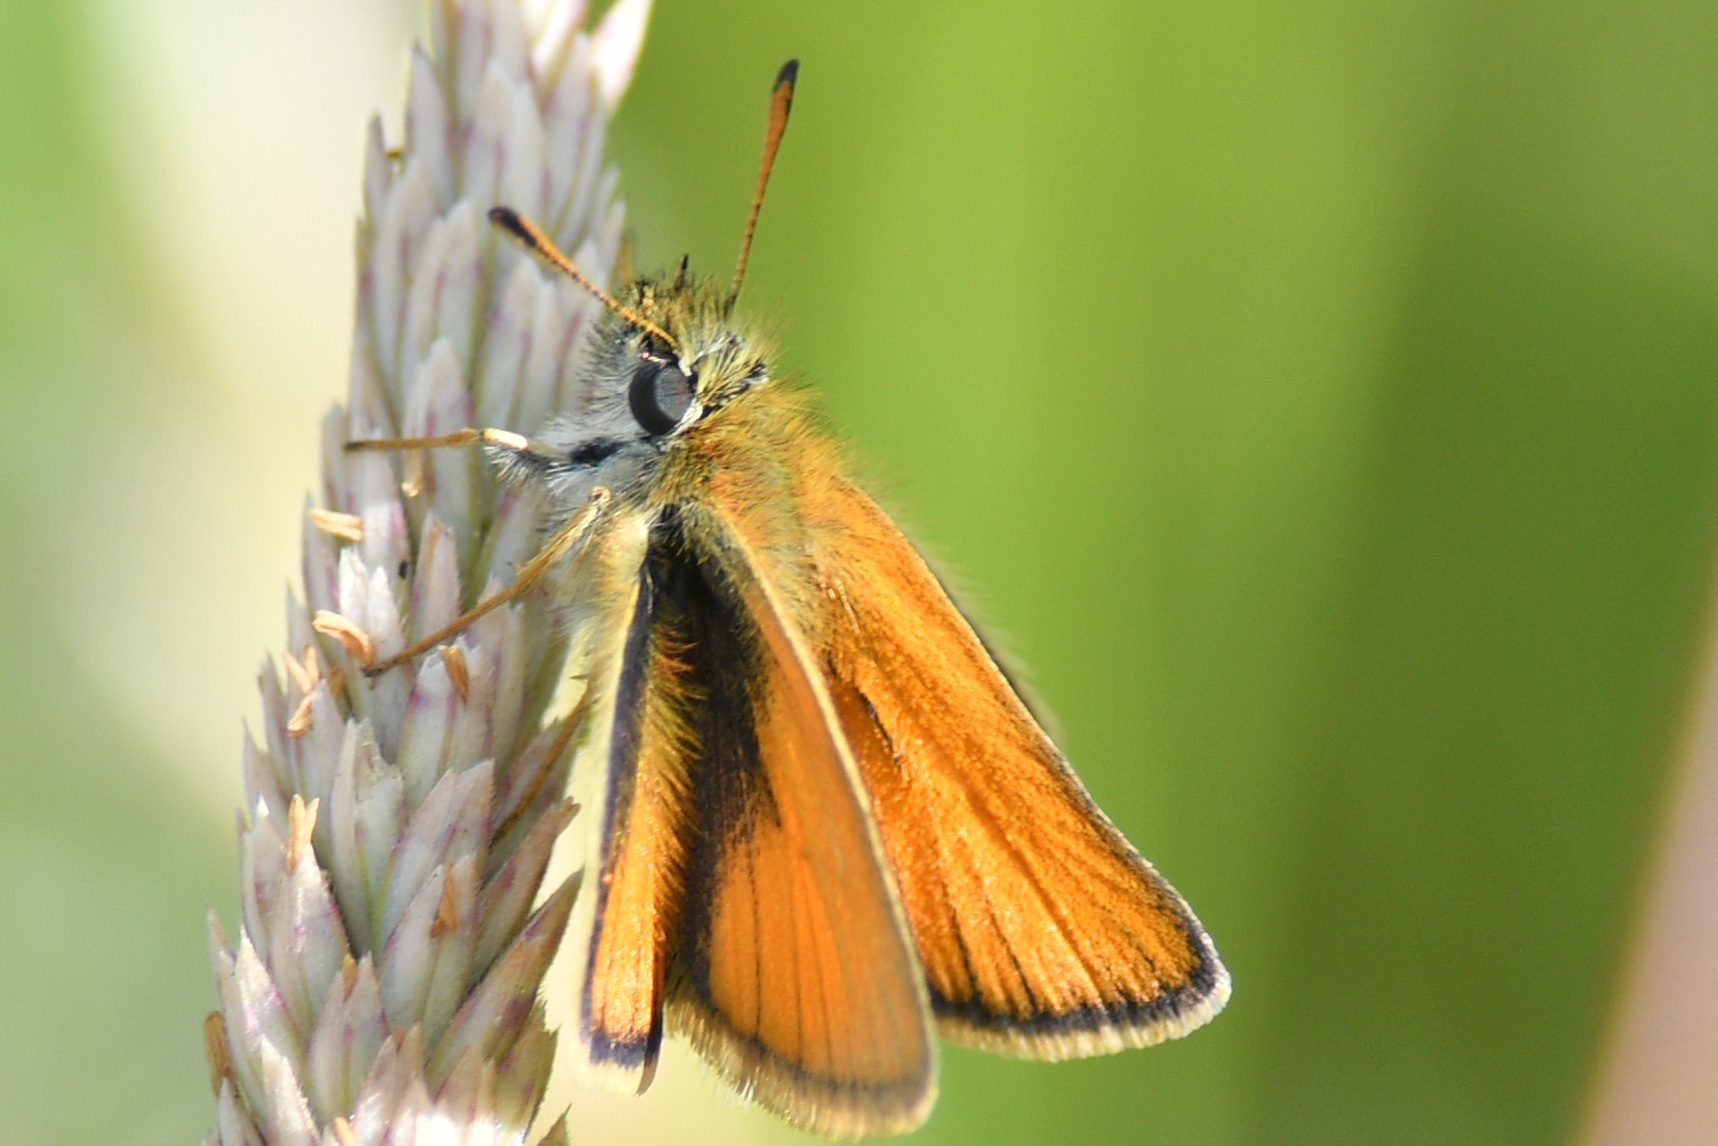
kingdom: Animalia
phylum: Arthropoda
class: Insecta
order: Lepidoptera
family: Hesperiidae
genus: Thymelicus
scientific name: Thymelicus lineola
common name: Essex skipper
